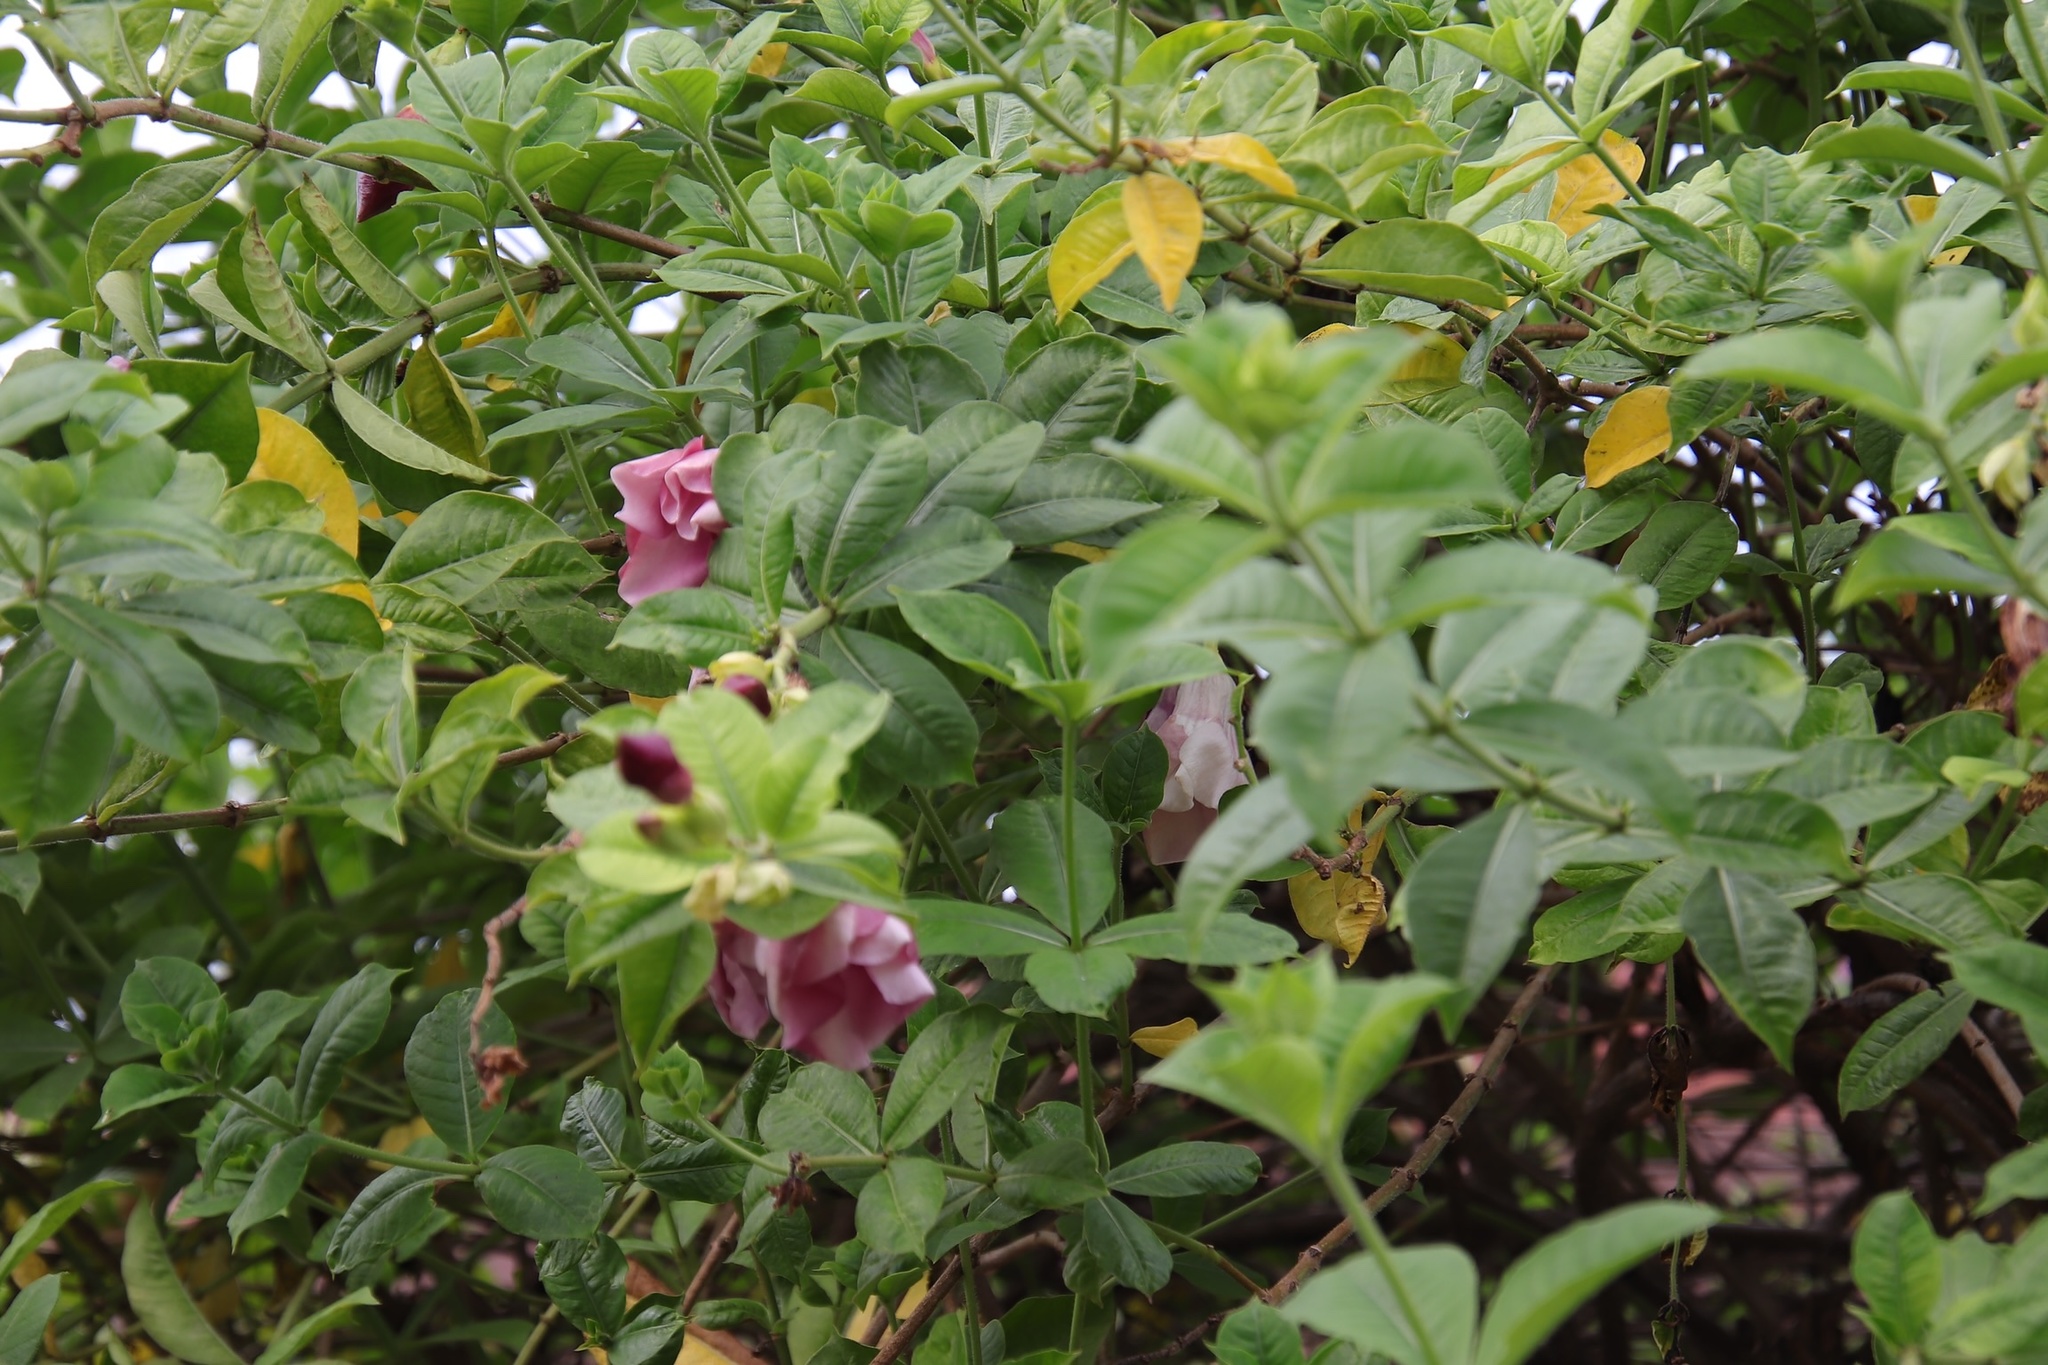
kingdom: Plantae
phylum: Tracheophyta
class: Magnoliopsida
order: Gentianales
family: Apocynaceae
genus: Allamanda
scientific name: Allamanda blanchetii
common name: Purple allamanda
